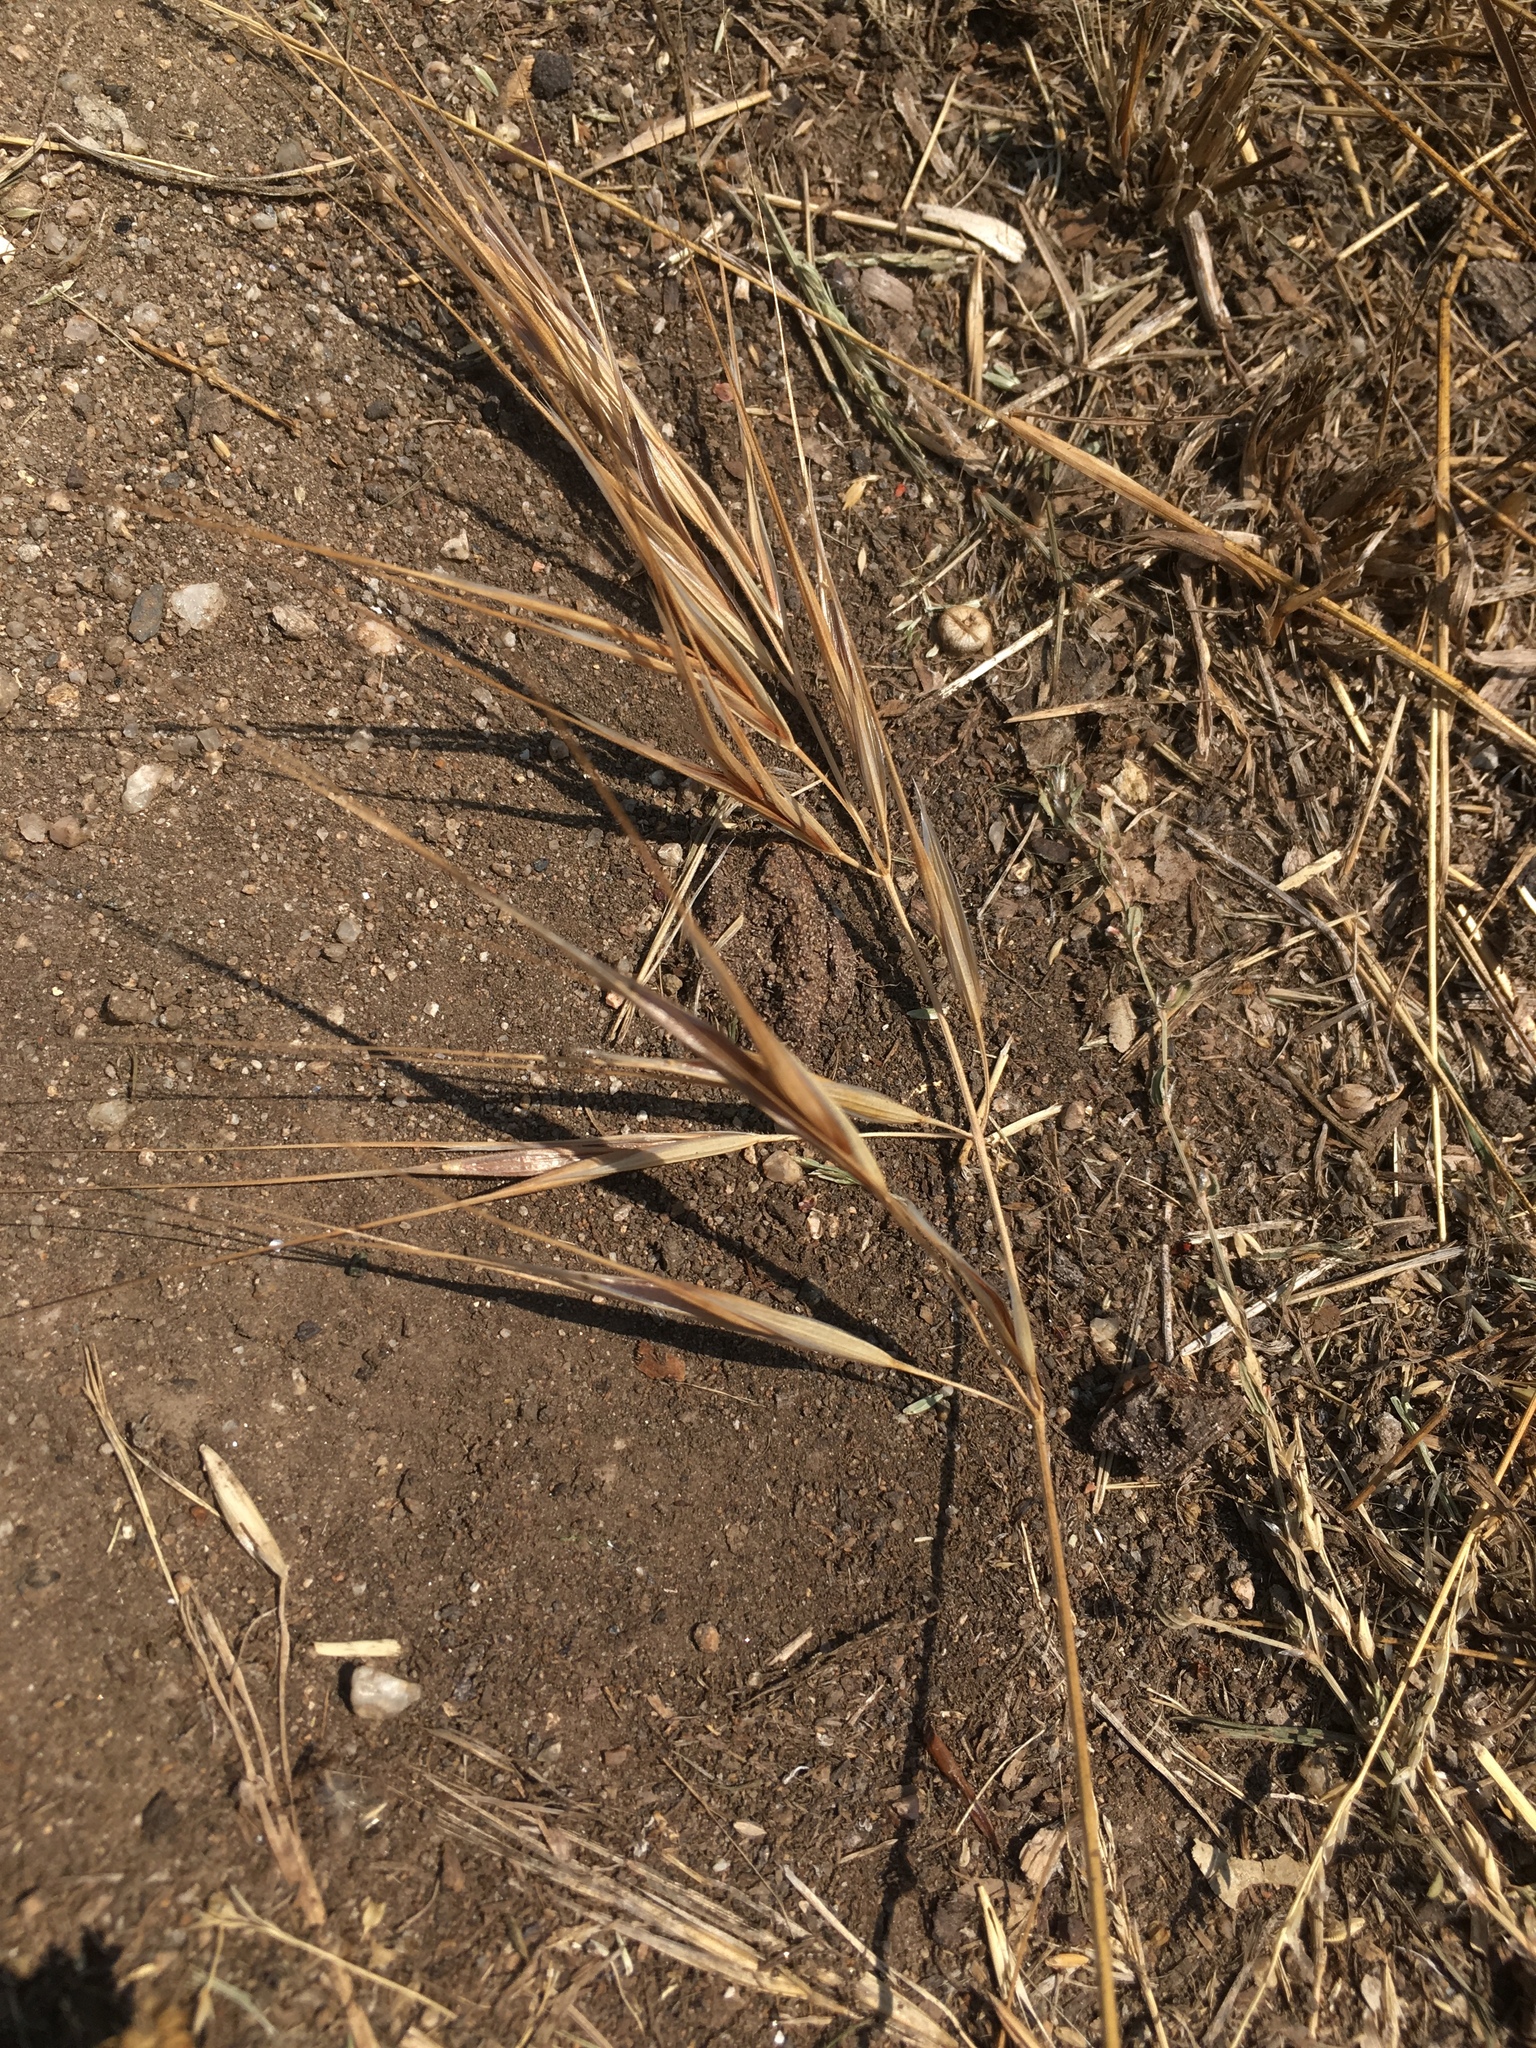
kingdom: Plantae
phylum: Tracheophyta
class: Liliopsida
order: Poales
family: Poaceae
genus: Bromus
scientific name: Bromus diandrus
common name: Ripgut brome
